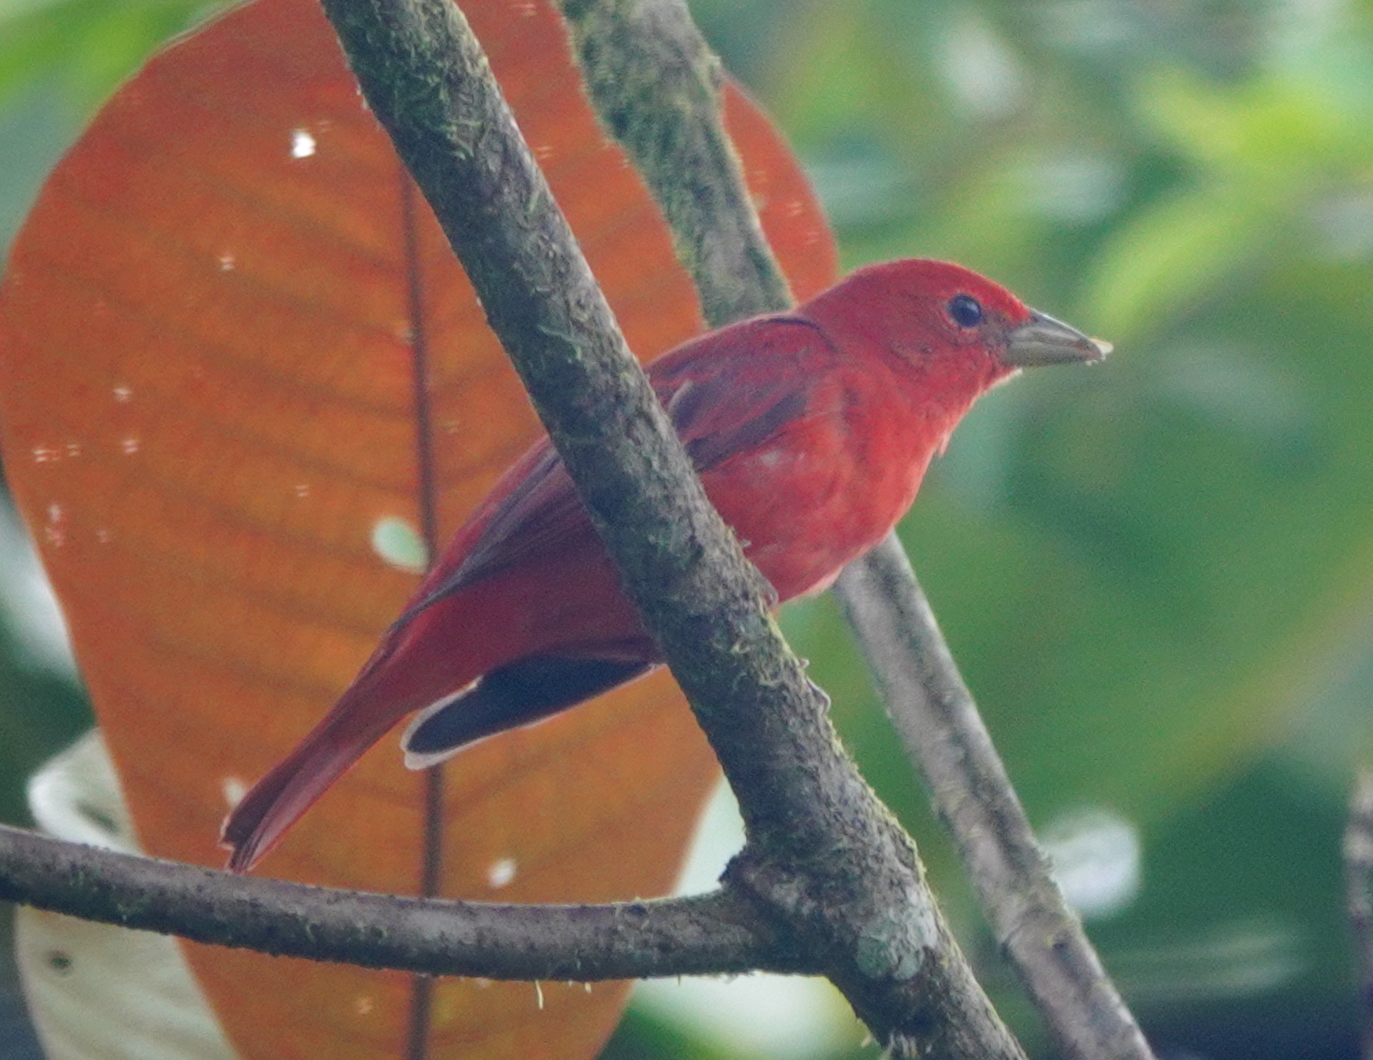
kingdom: Animalia
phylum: Chordata
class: Aves
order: Passeriformes
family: Cardinalidae
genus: Piranga
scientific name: Piranga rubra
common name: Summer tanager
